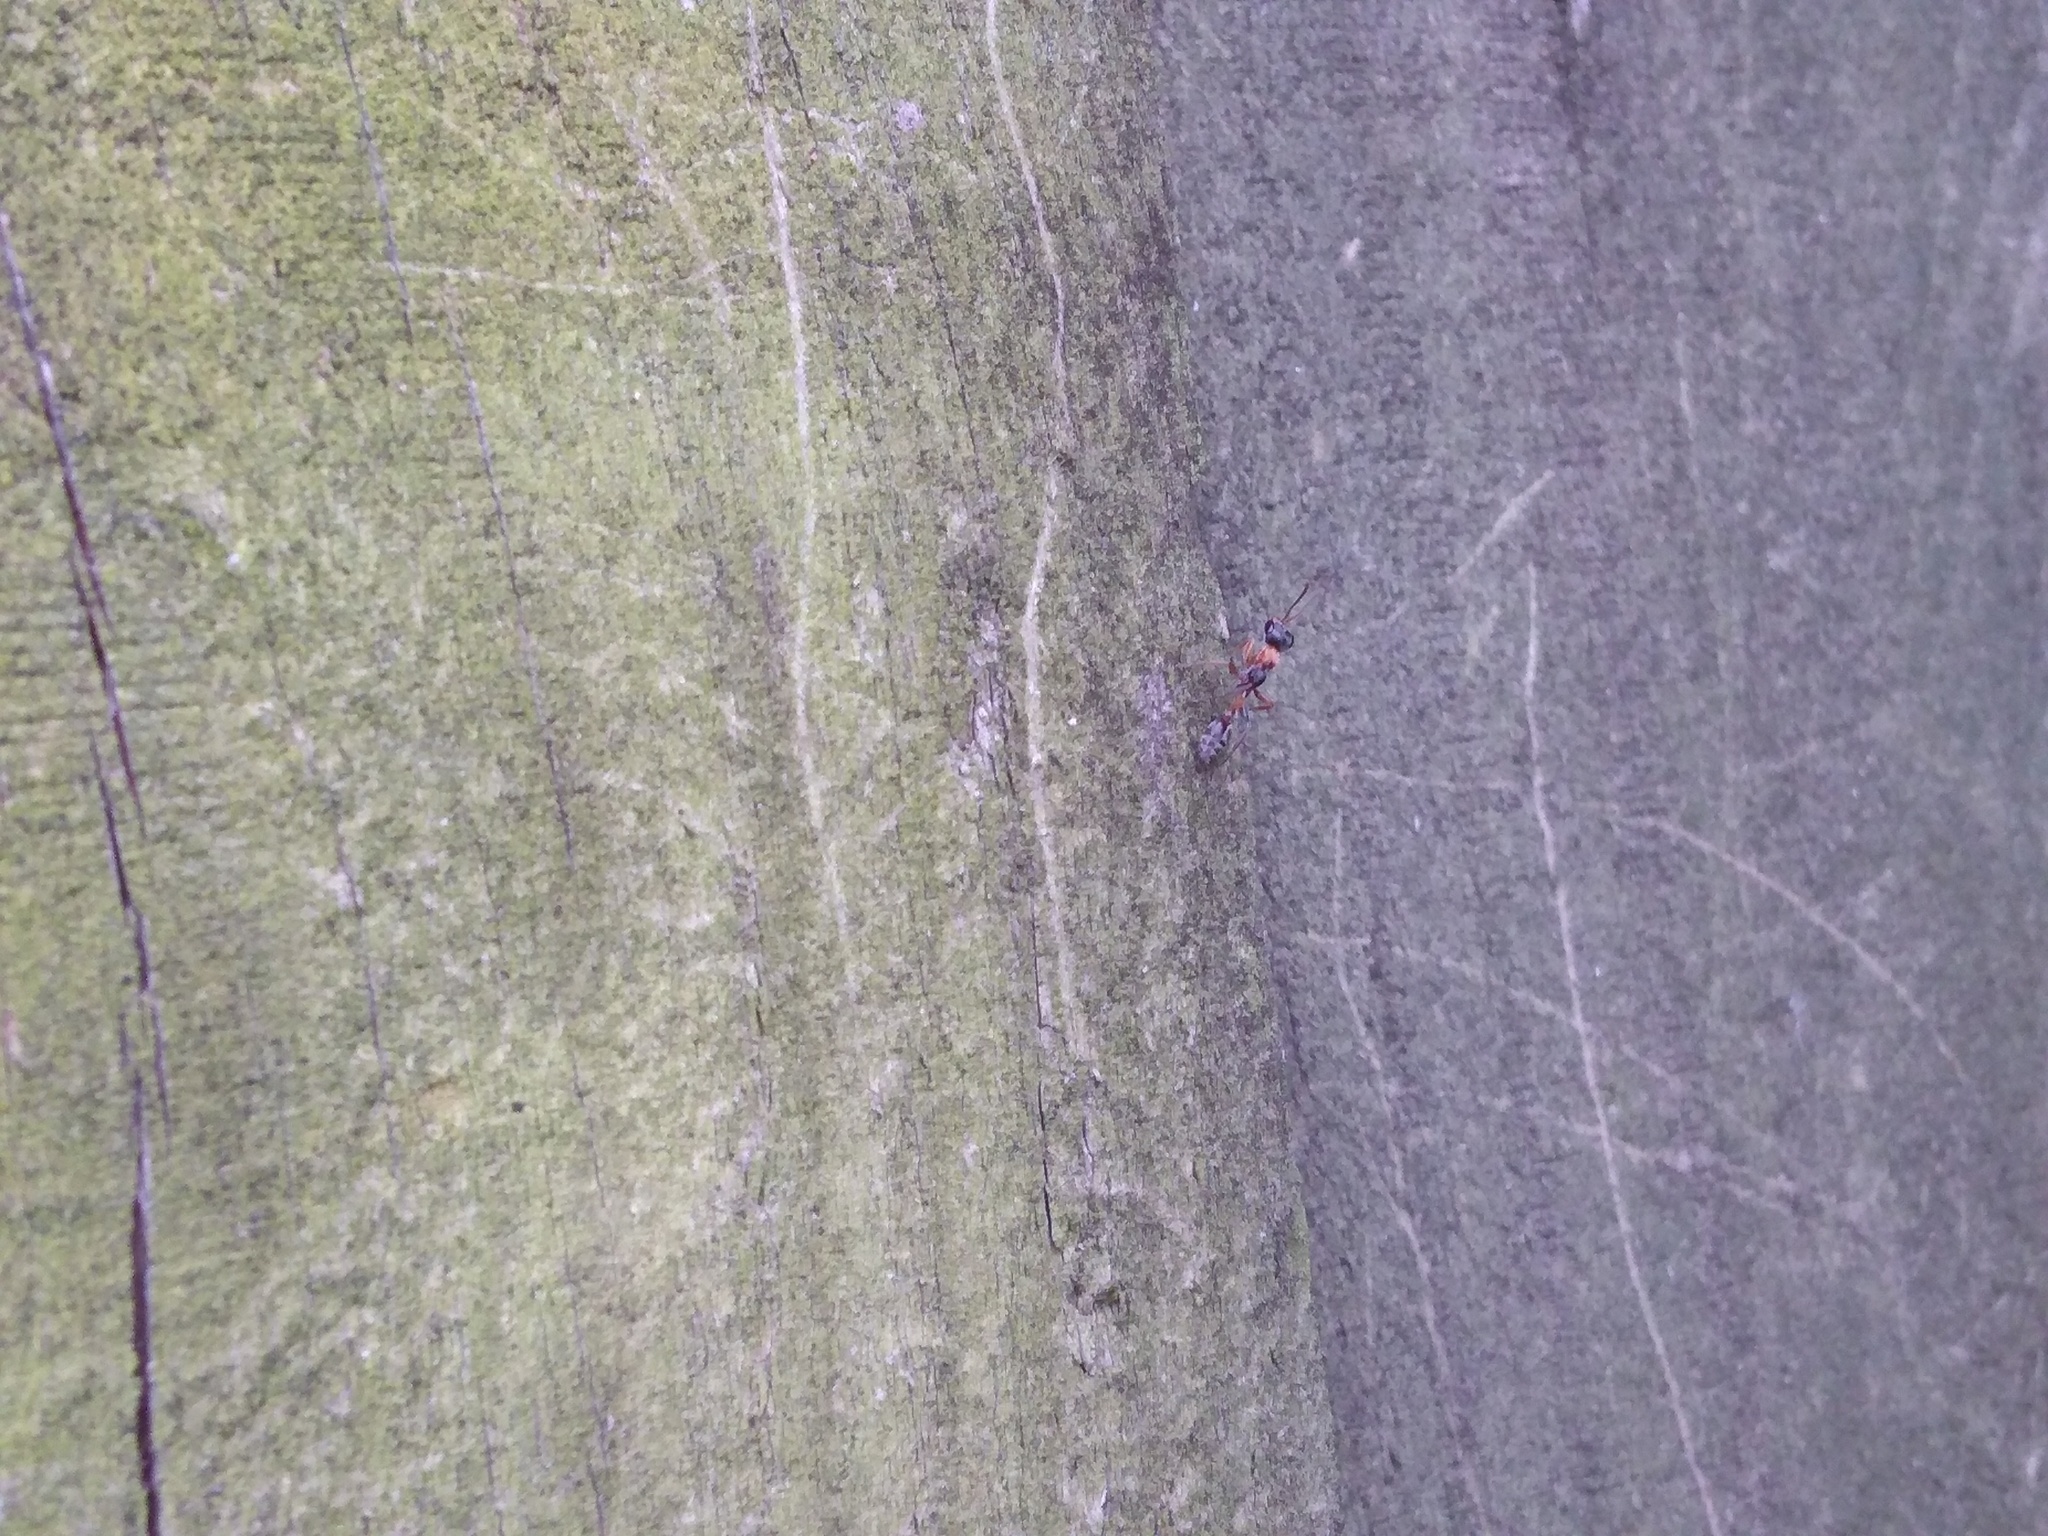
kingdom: Animalia
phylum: Arthropoda
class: Insecta
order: Hymenoptera
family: Formicidae
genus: Pseudomyrmex
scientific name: Pseudomyrmex gracilis
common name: Graceful twig ant
